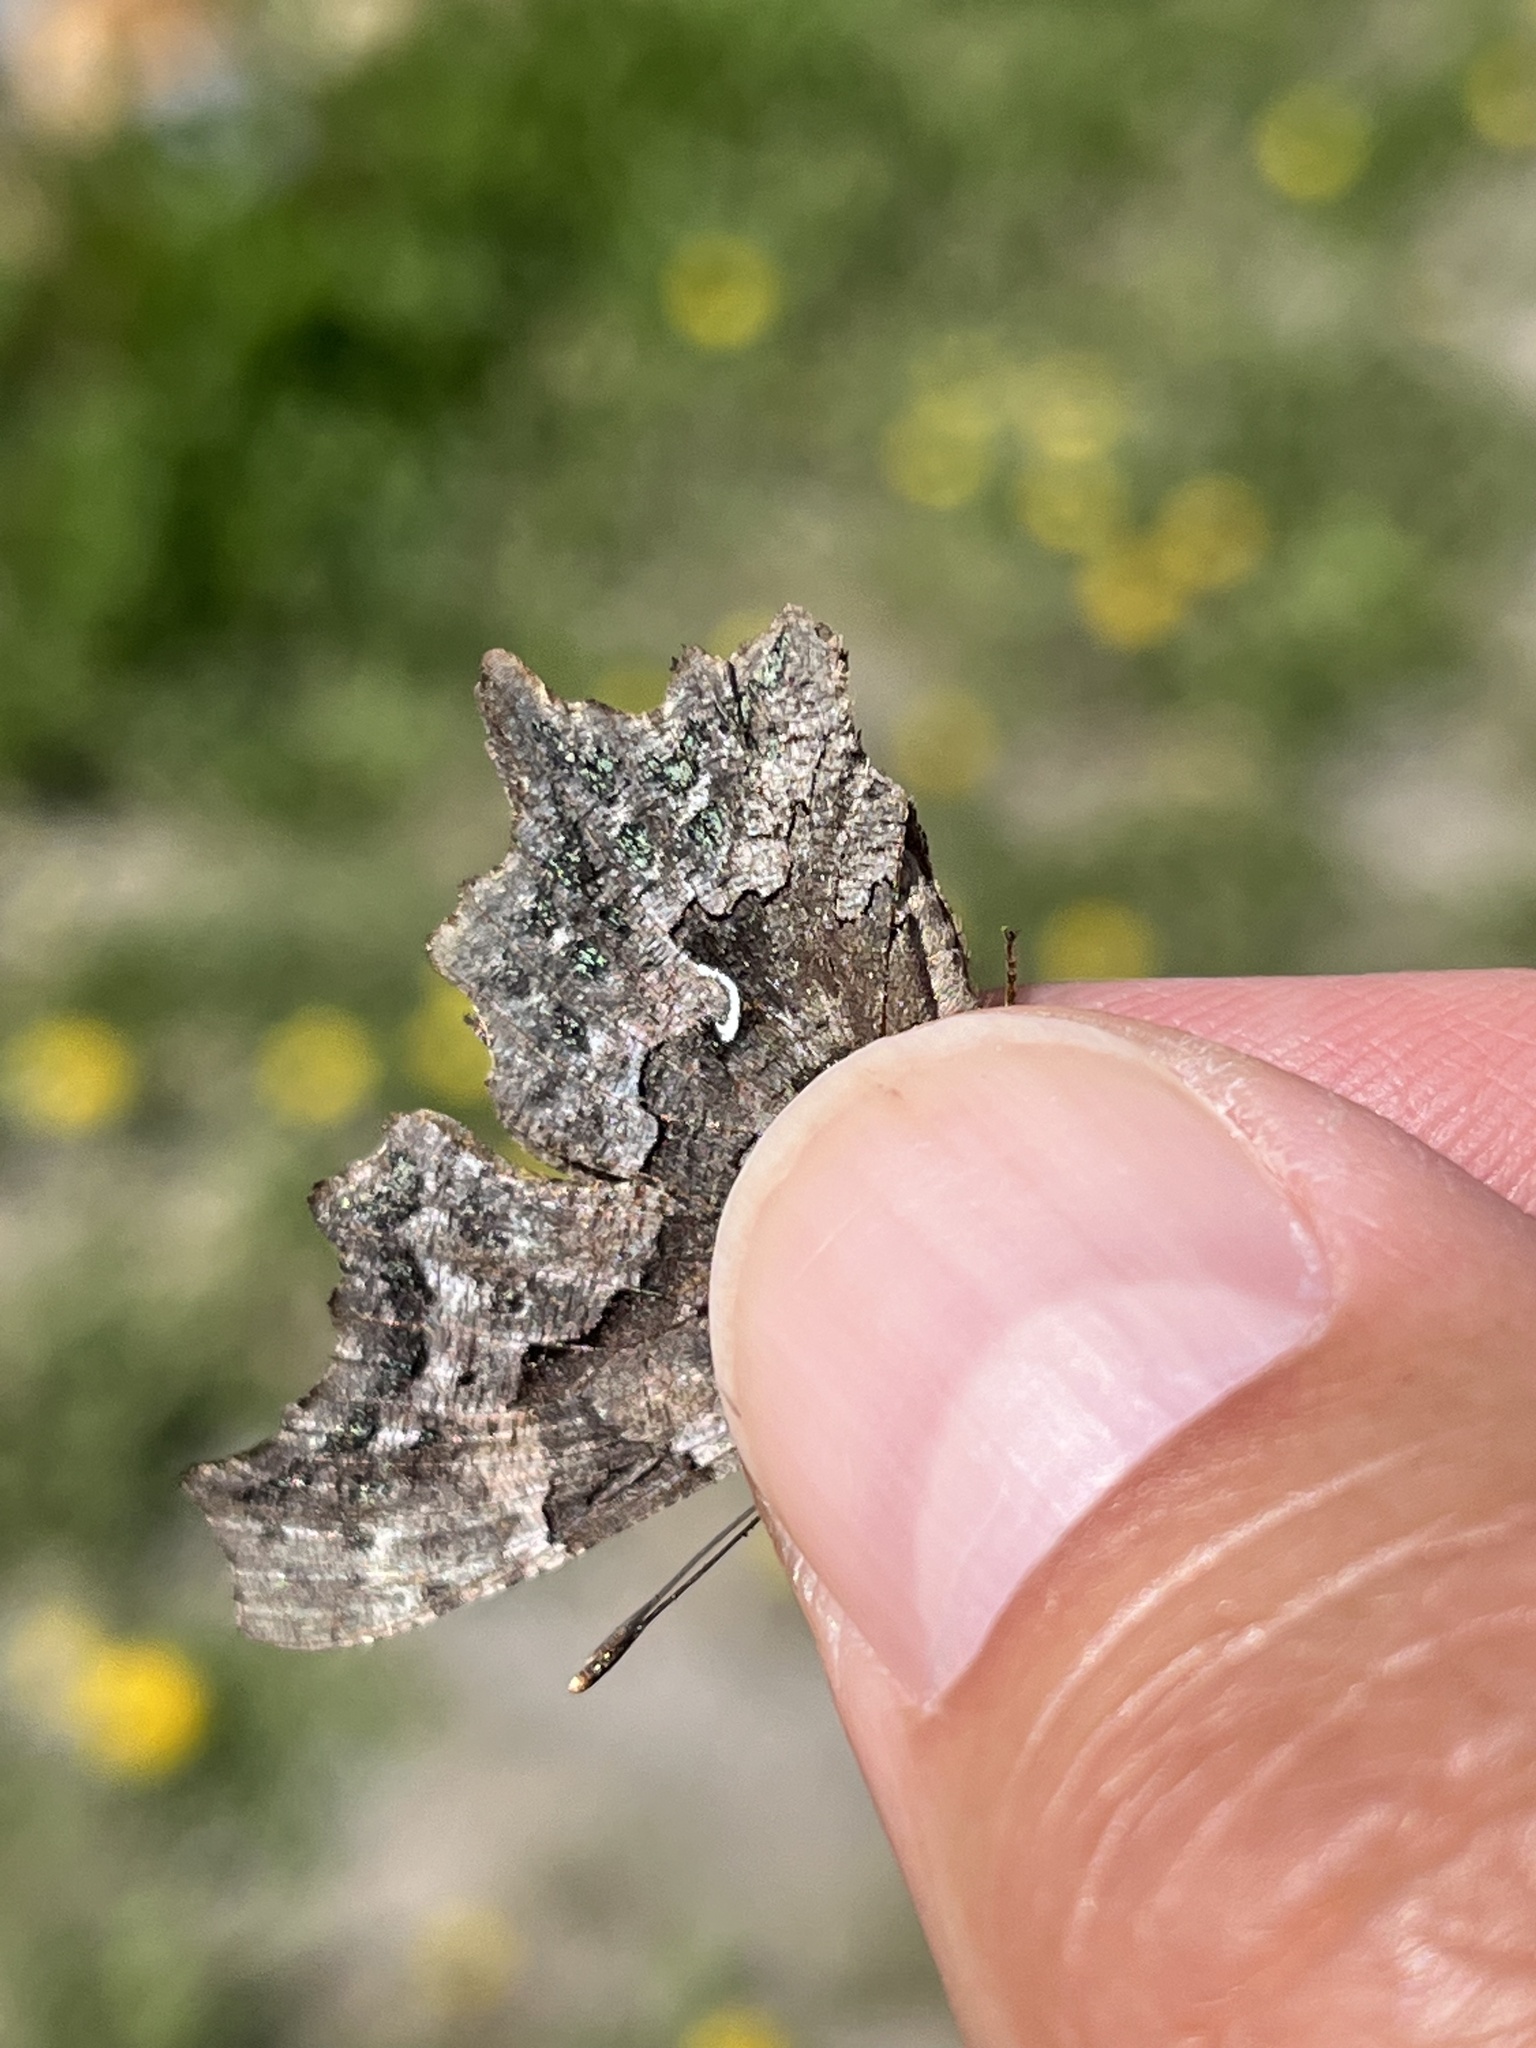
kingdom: Animalia
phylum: Arthropoda
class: Insecta
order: Lepidoptera
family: Nymphalidae
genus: Polygonia
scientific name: Polygonia faunus
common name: Green comma
